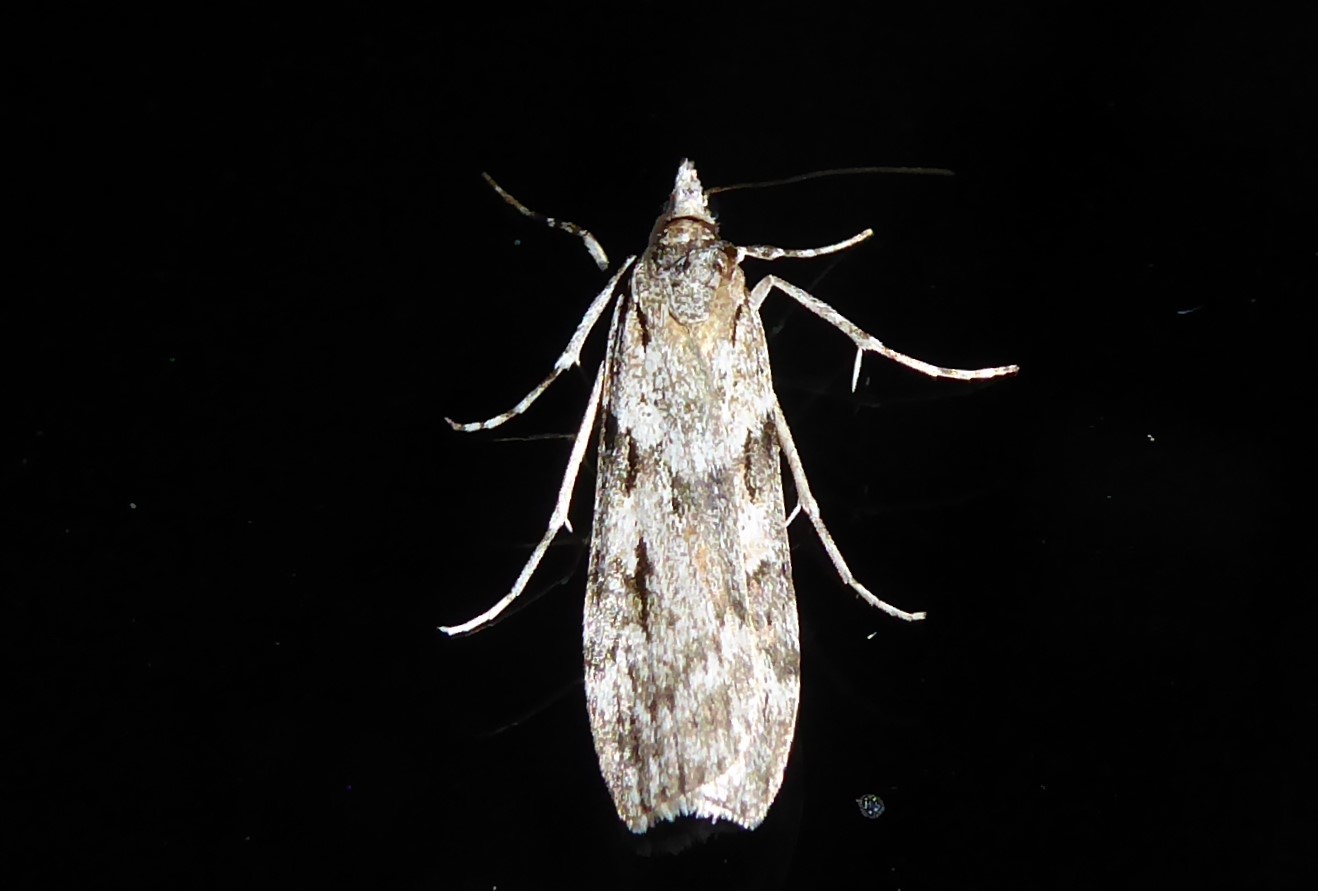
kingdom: Animalia
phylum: Arthropoda
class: Insecta
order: Lepidoptera
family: Crambidae
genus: Scoparia
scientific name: Scoparia halopis
